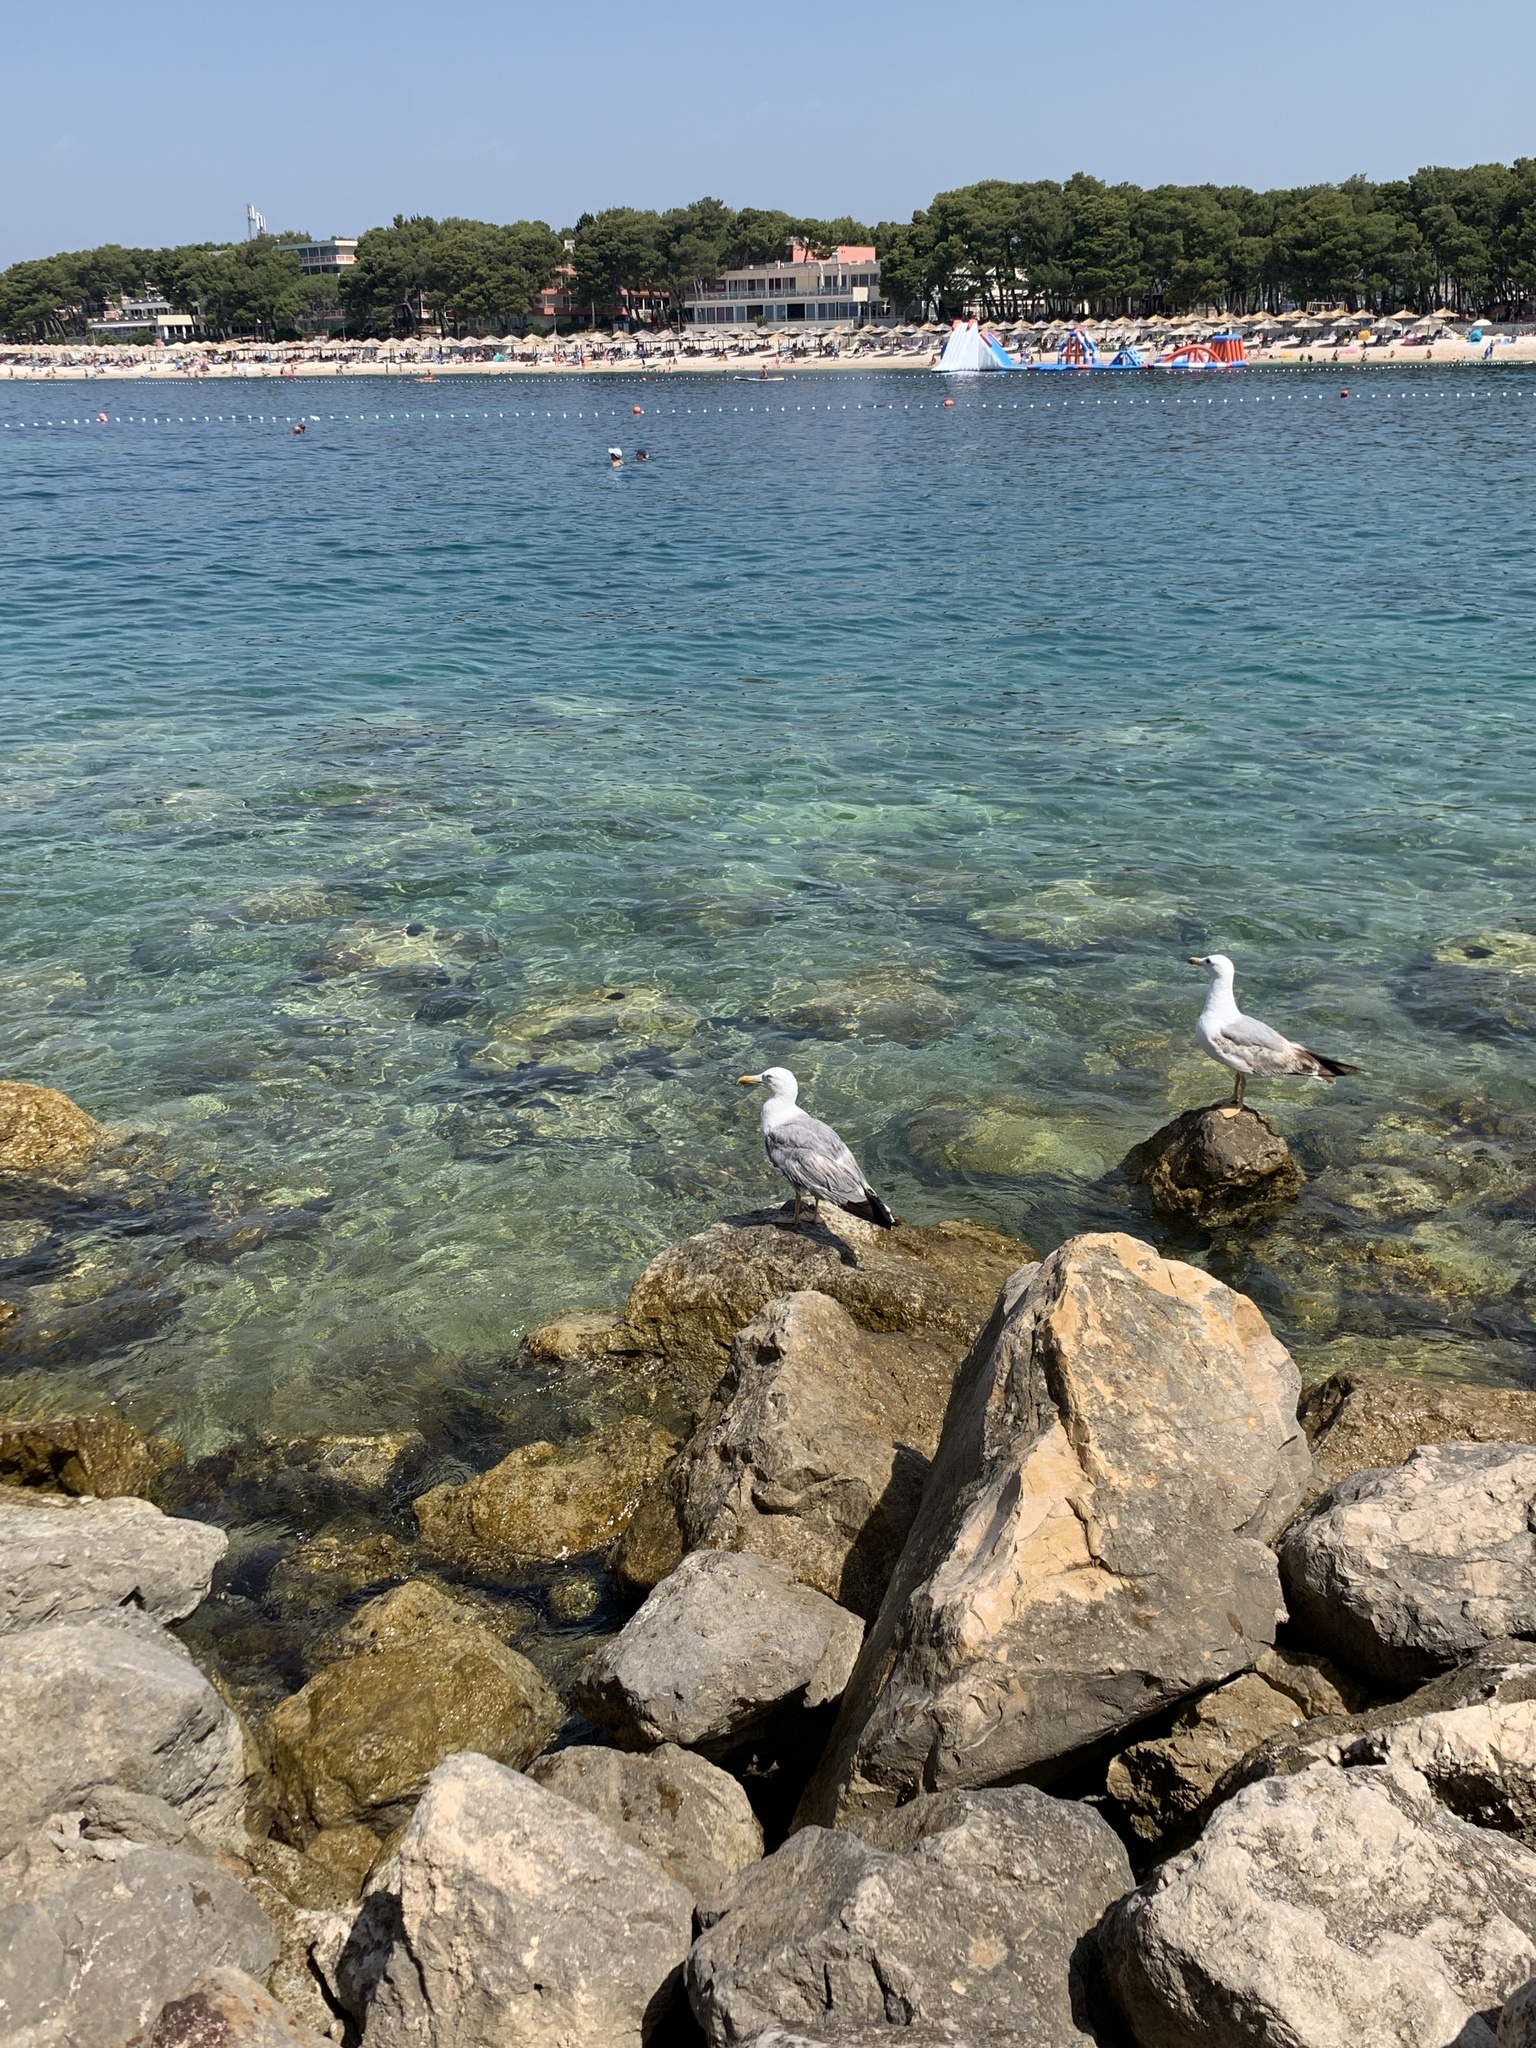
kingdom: Animalia
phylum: Chordata
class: Aves
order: Charadriiformes
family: Laridae
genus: Larus
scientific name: Larus michahellis
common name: Yellow-legged gull
